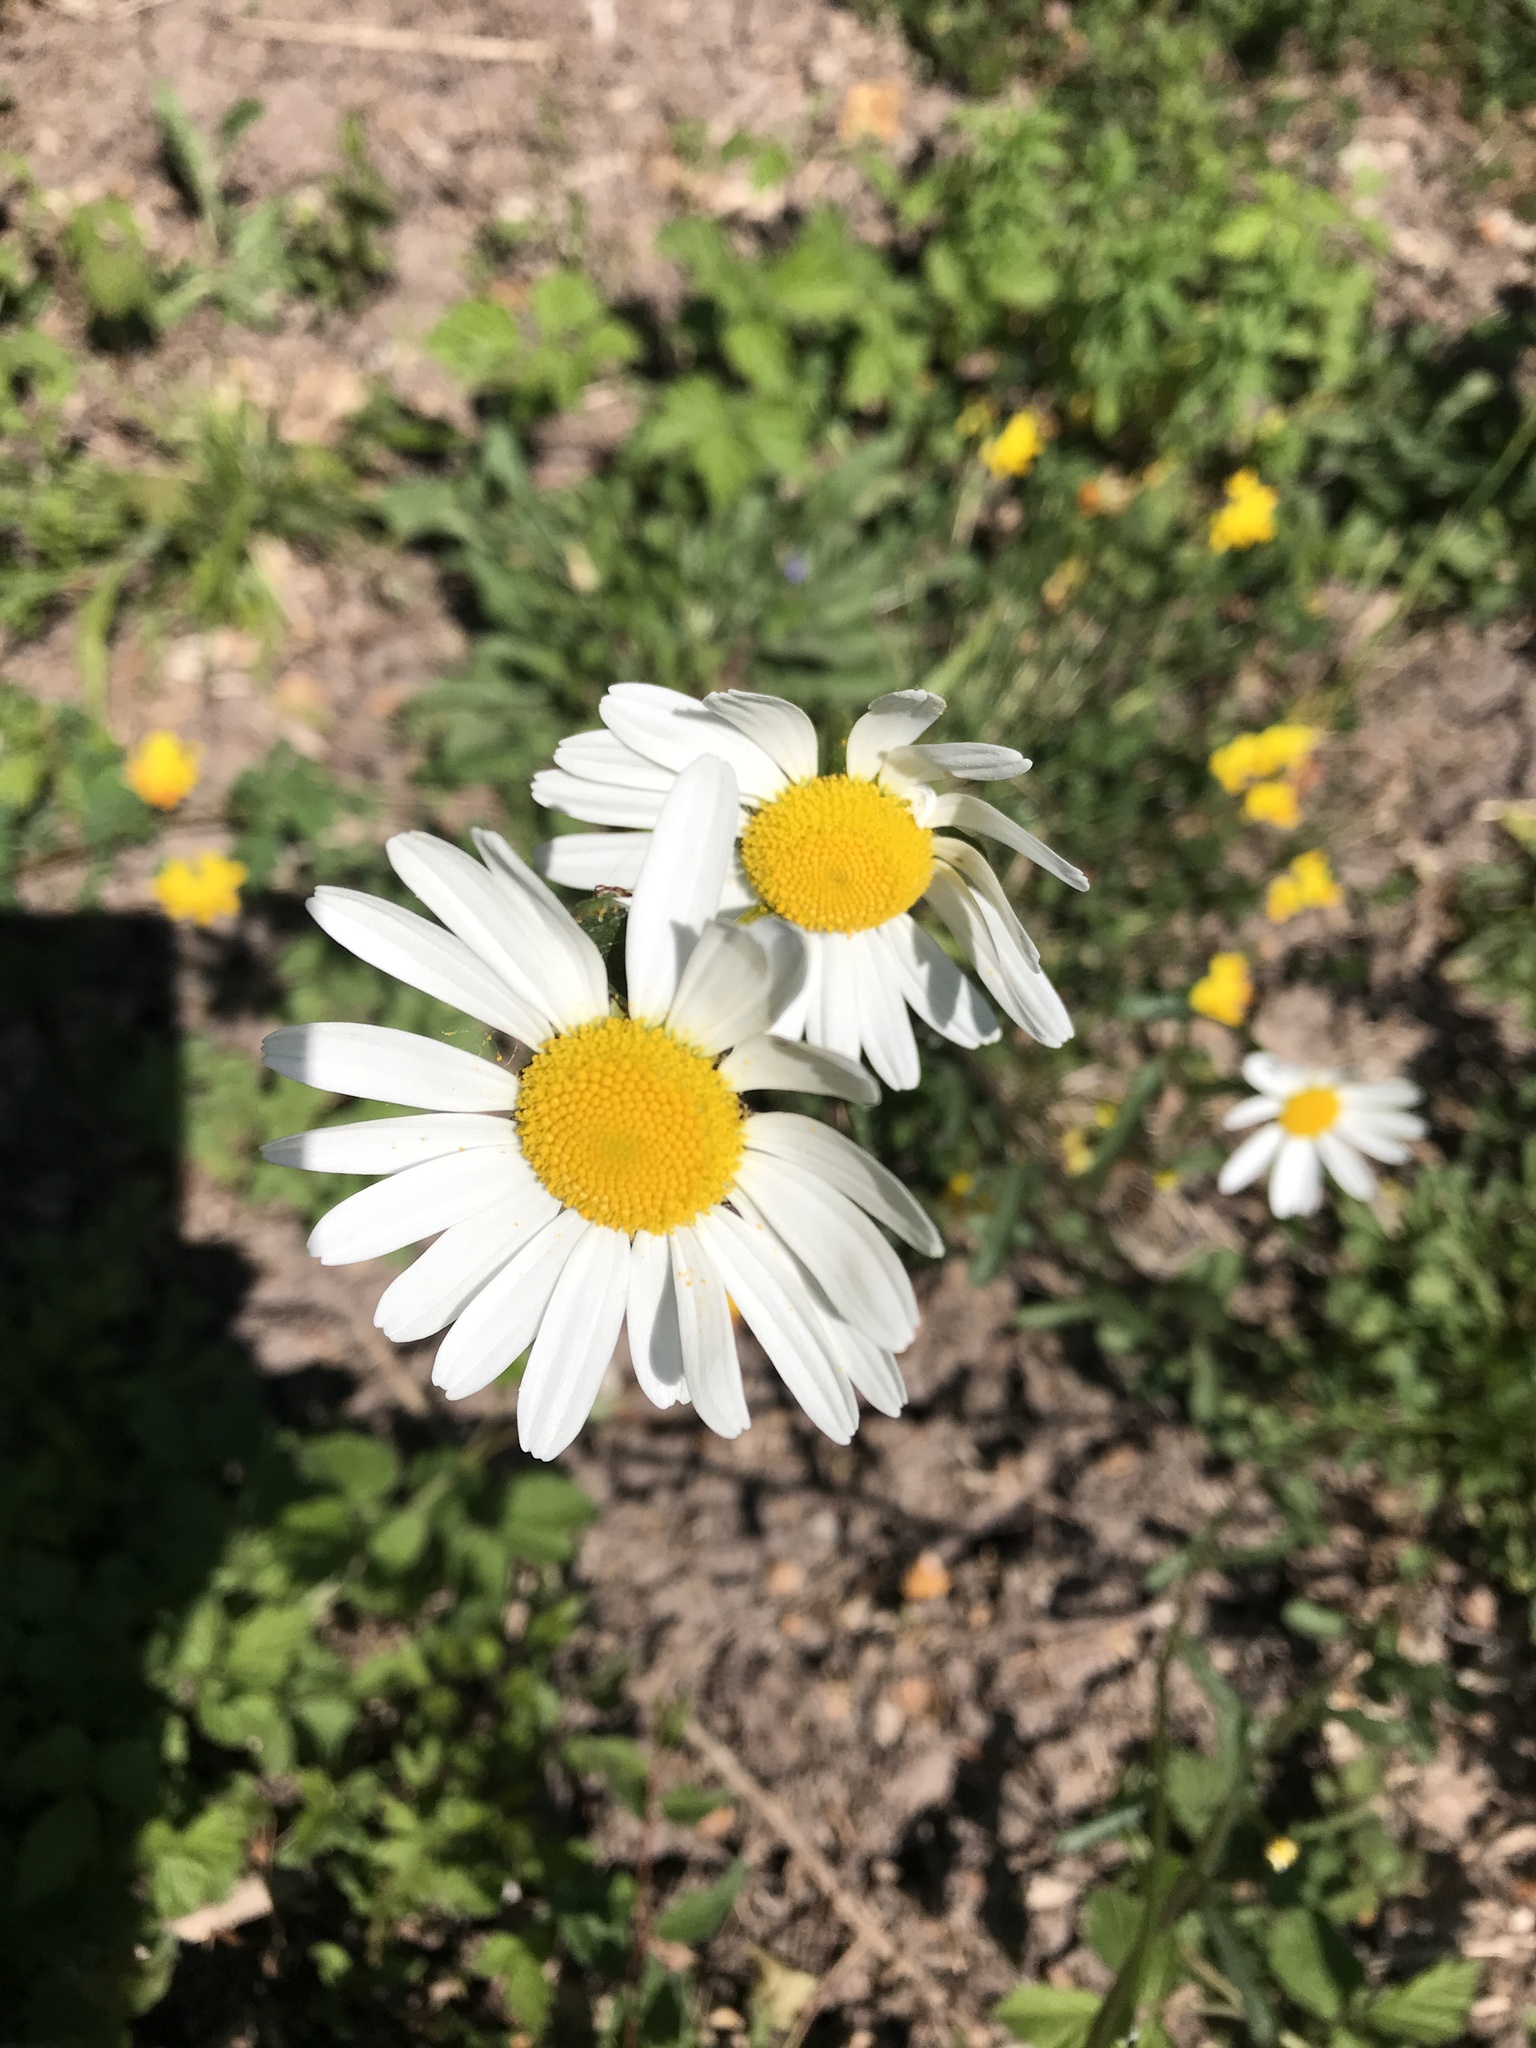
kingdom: Plantae
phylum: Tracheophyta
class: Magnoliopsida
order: Asterales
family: Asteraceae
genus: Leucanthemum
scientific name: Leucanthemum vulgare
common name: Oxeye daisy
